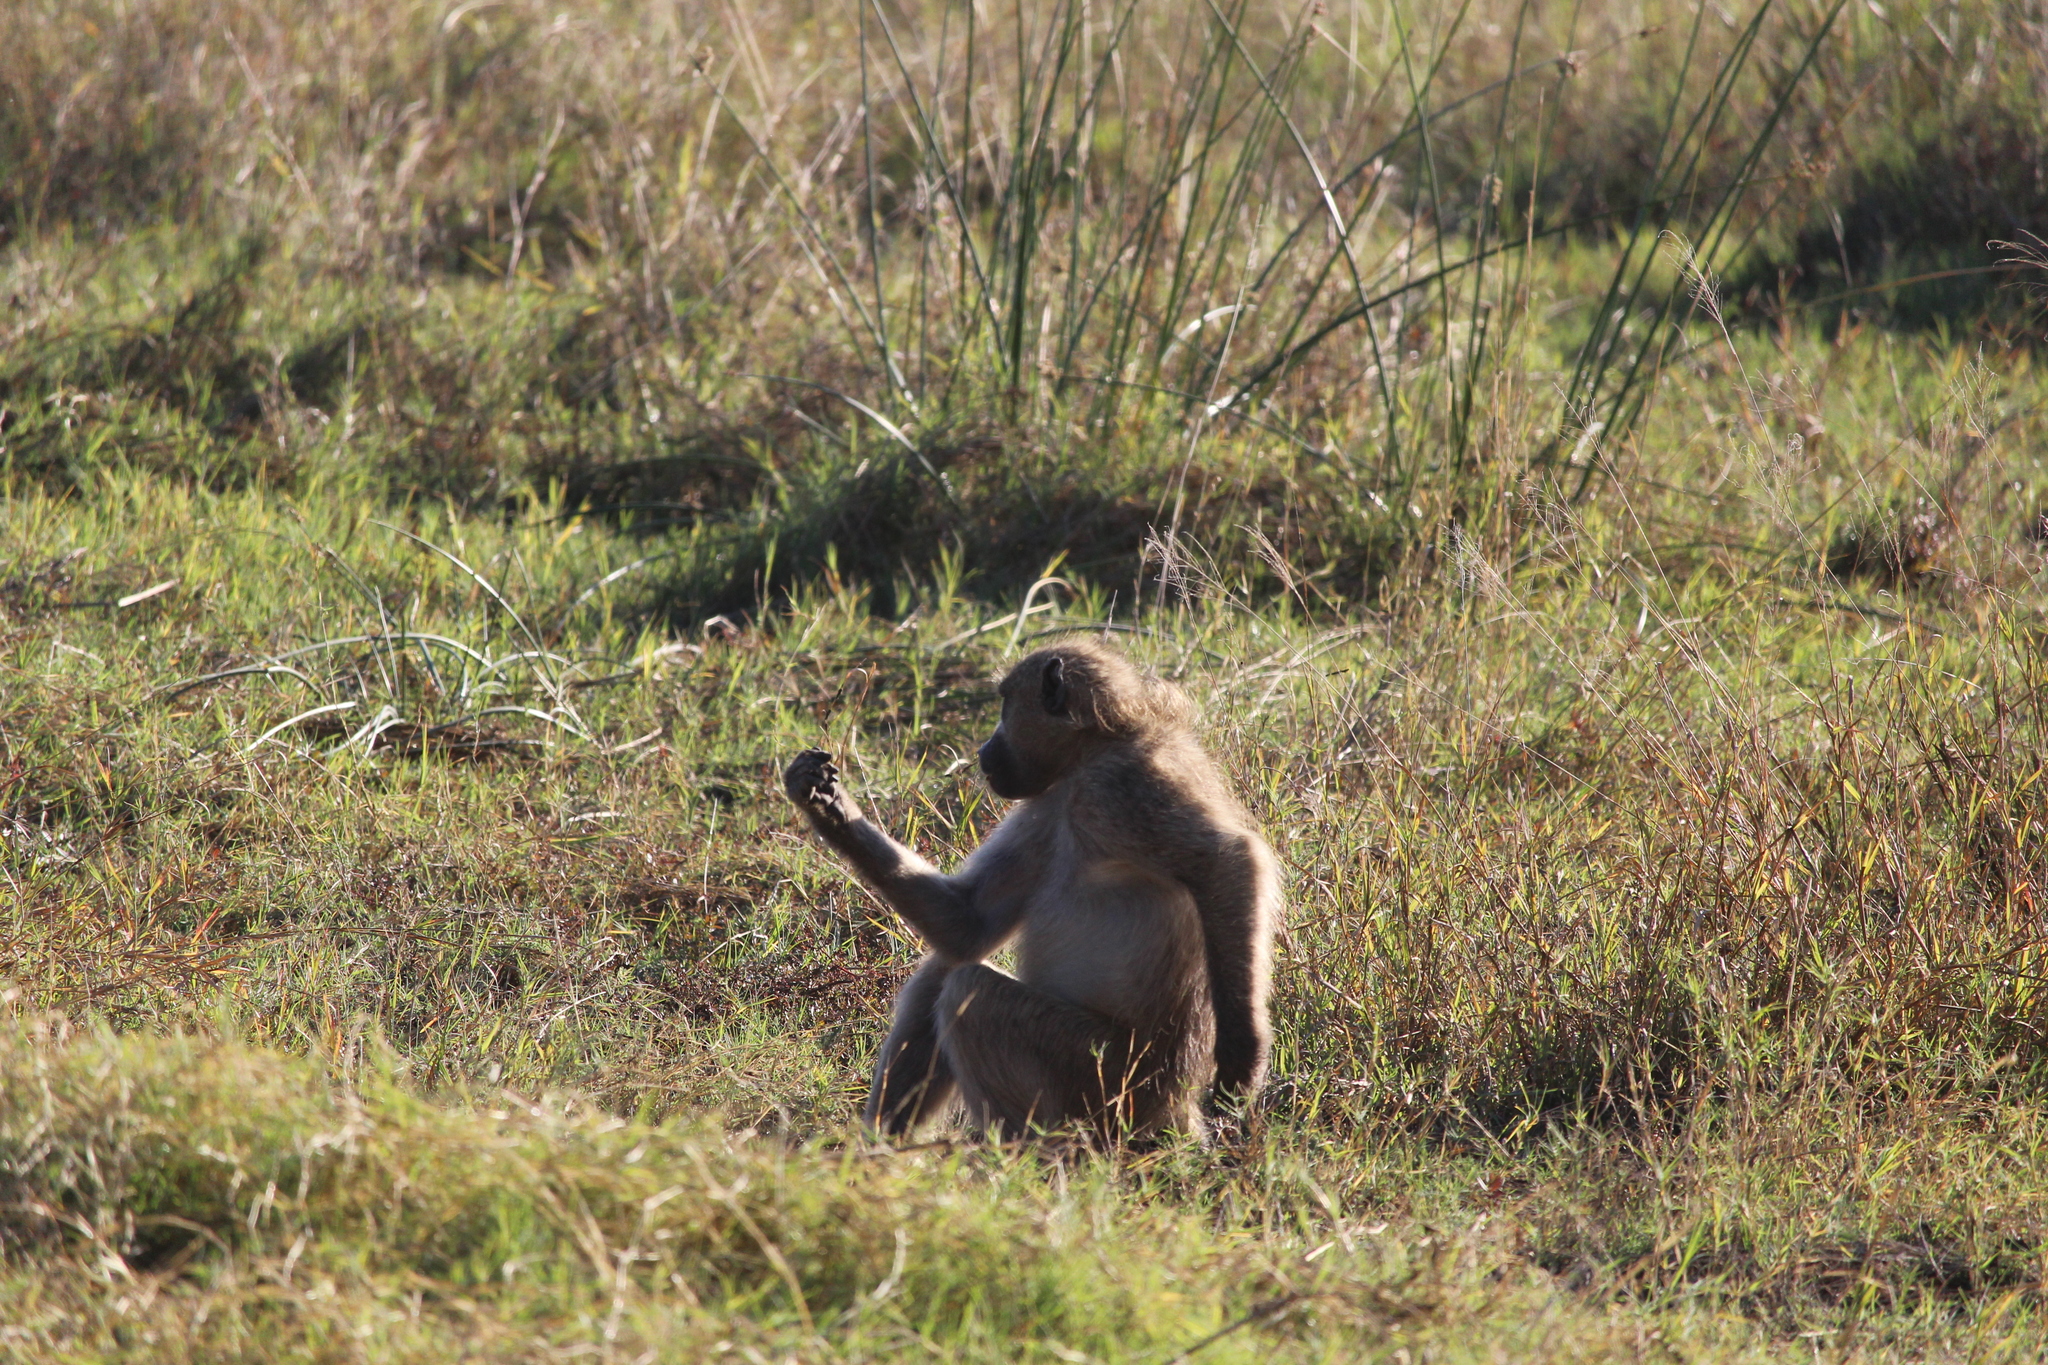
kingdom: Animalia
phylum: Chordata
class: Mammalia
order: Primates
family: Cercopithecidae
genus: Papio
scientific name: Papio ursinus
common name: Chacma baboon
